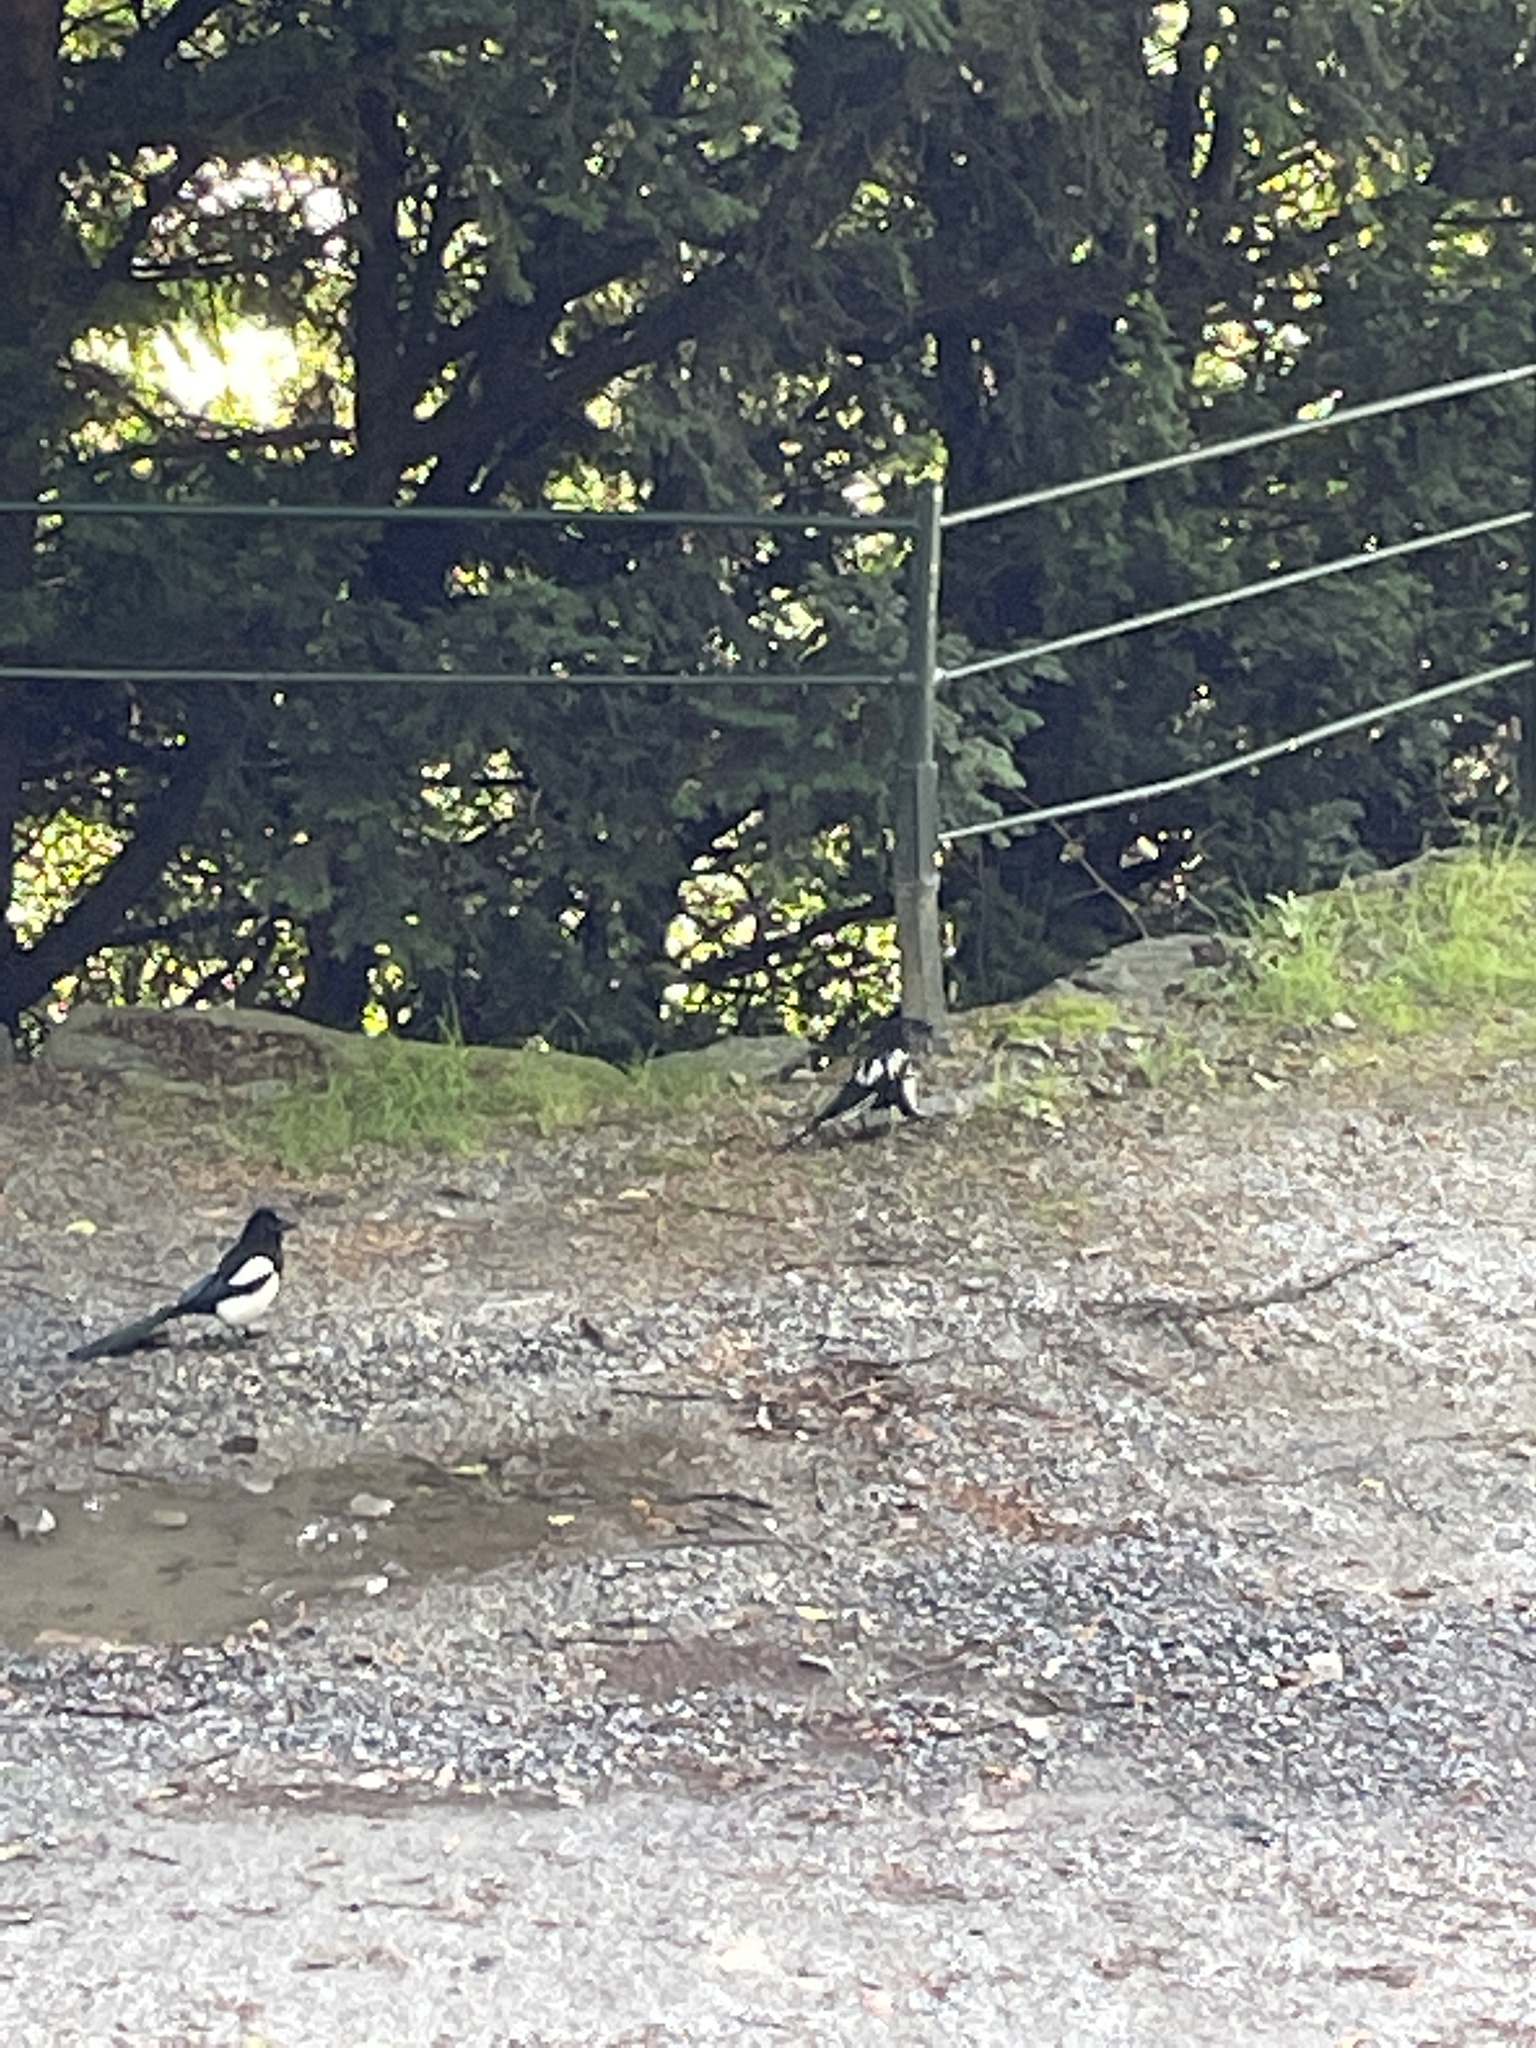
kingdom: Animalia
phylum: Chordata
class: Aves
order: Passeriformes
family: Corvidae
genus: Pica
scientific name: Pica pica
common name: Eurasian magpie
